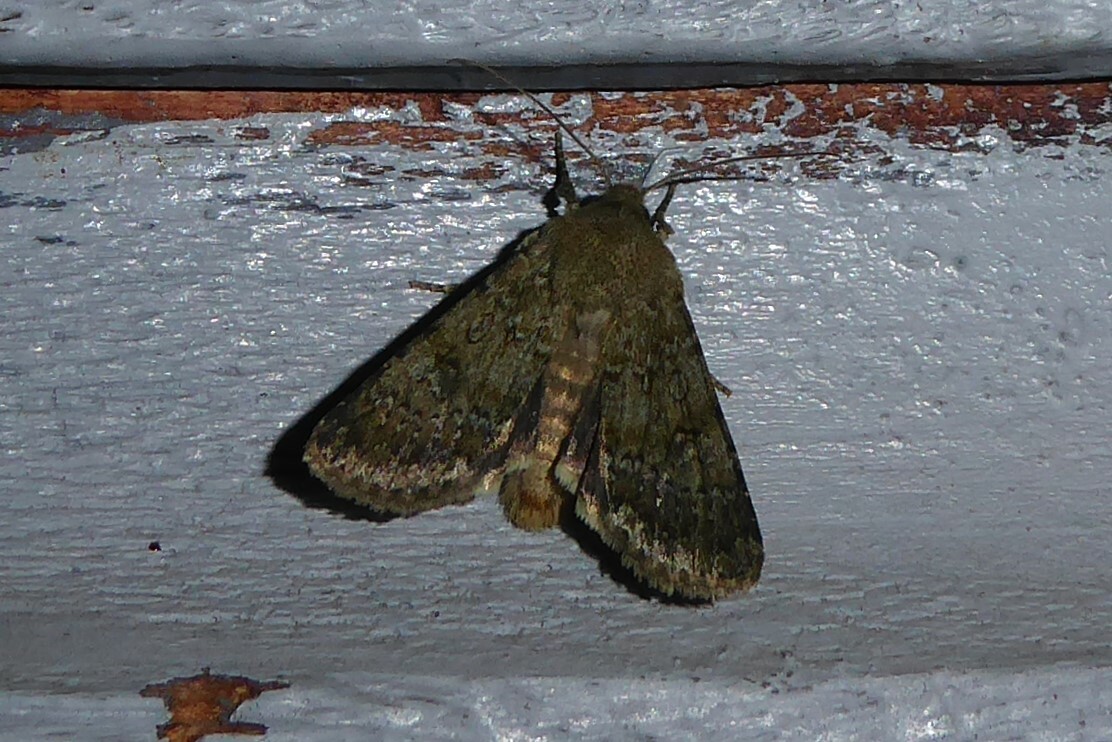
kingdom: Animalia
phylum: Arthropoda
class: Insecta
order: Lepidoptera
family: Noctuidae
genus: Ichneutica
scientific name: Ichneutica moderata
